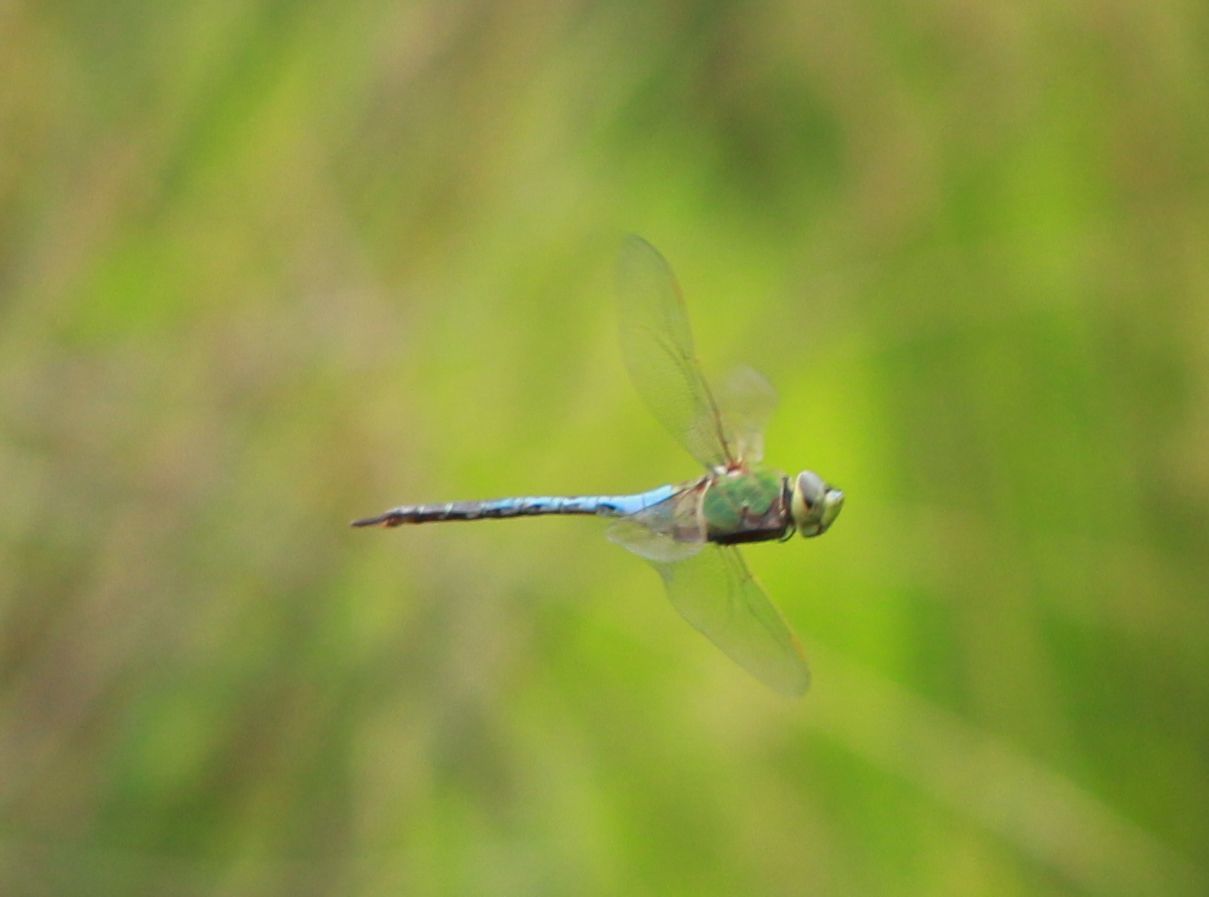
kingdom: Animalia
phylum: Arthropoda
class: Insecta
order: Odonata
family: Aeshnidae
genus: Anax
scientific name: Anax junius
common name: Common green darner
